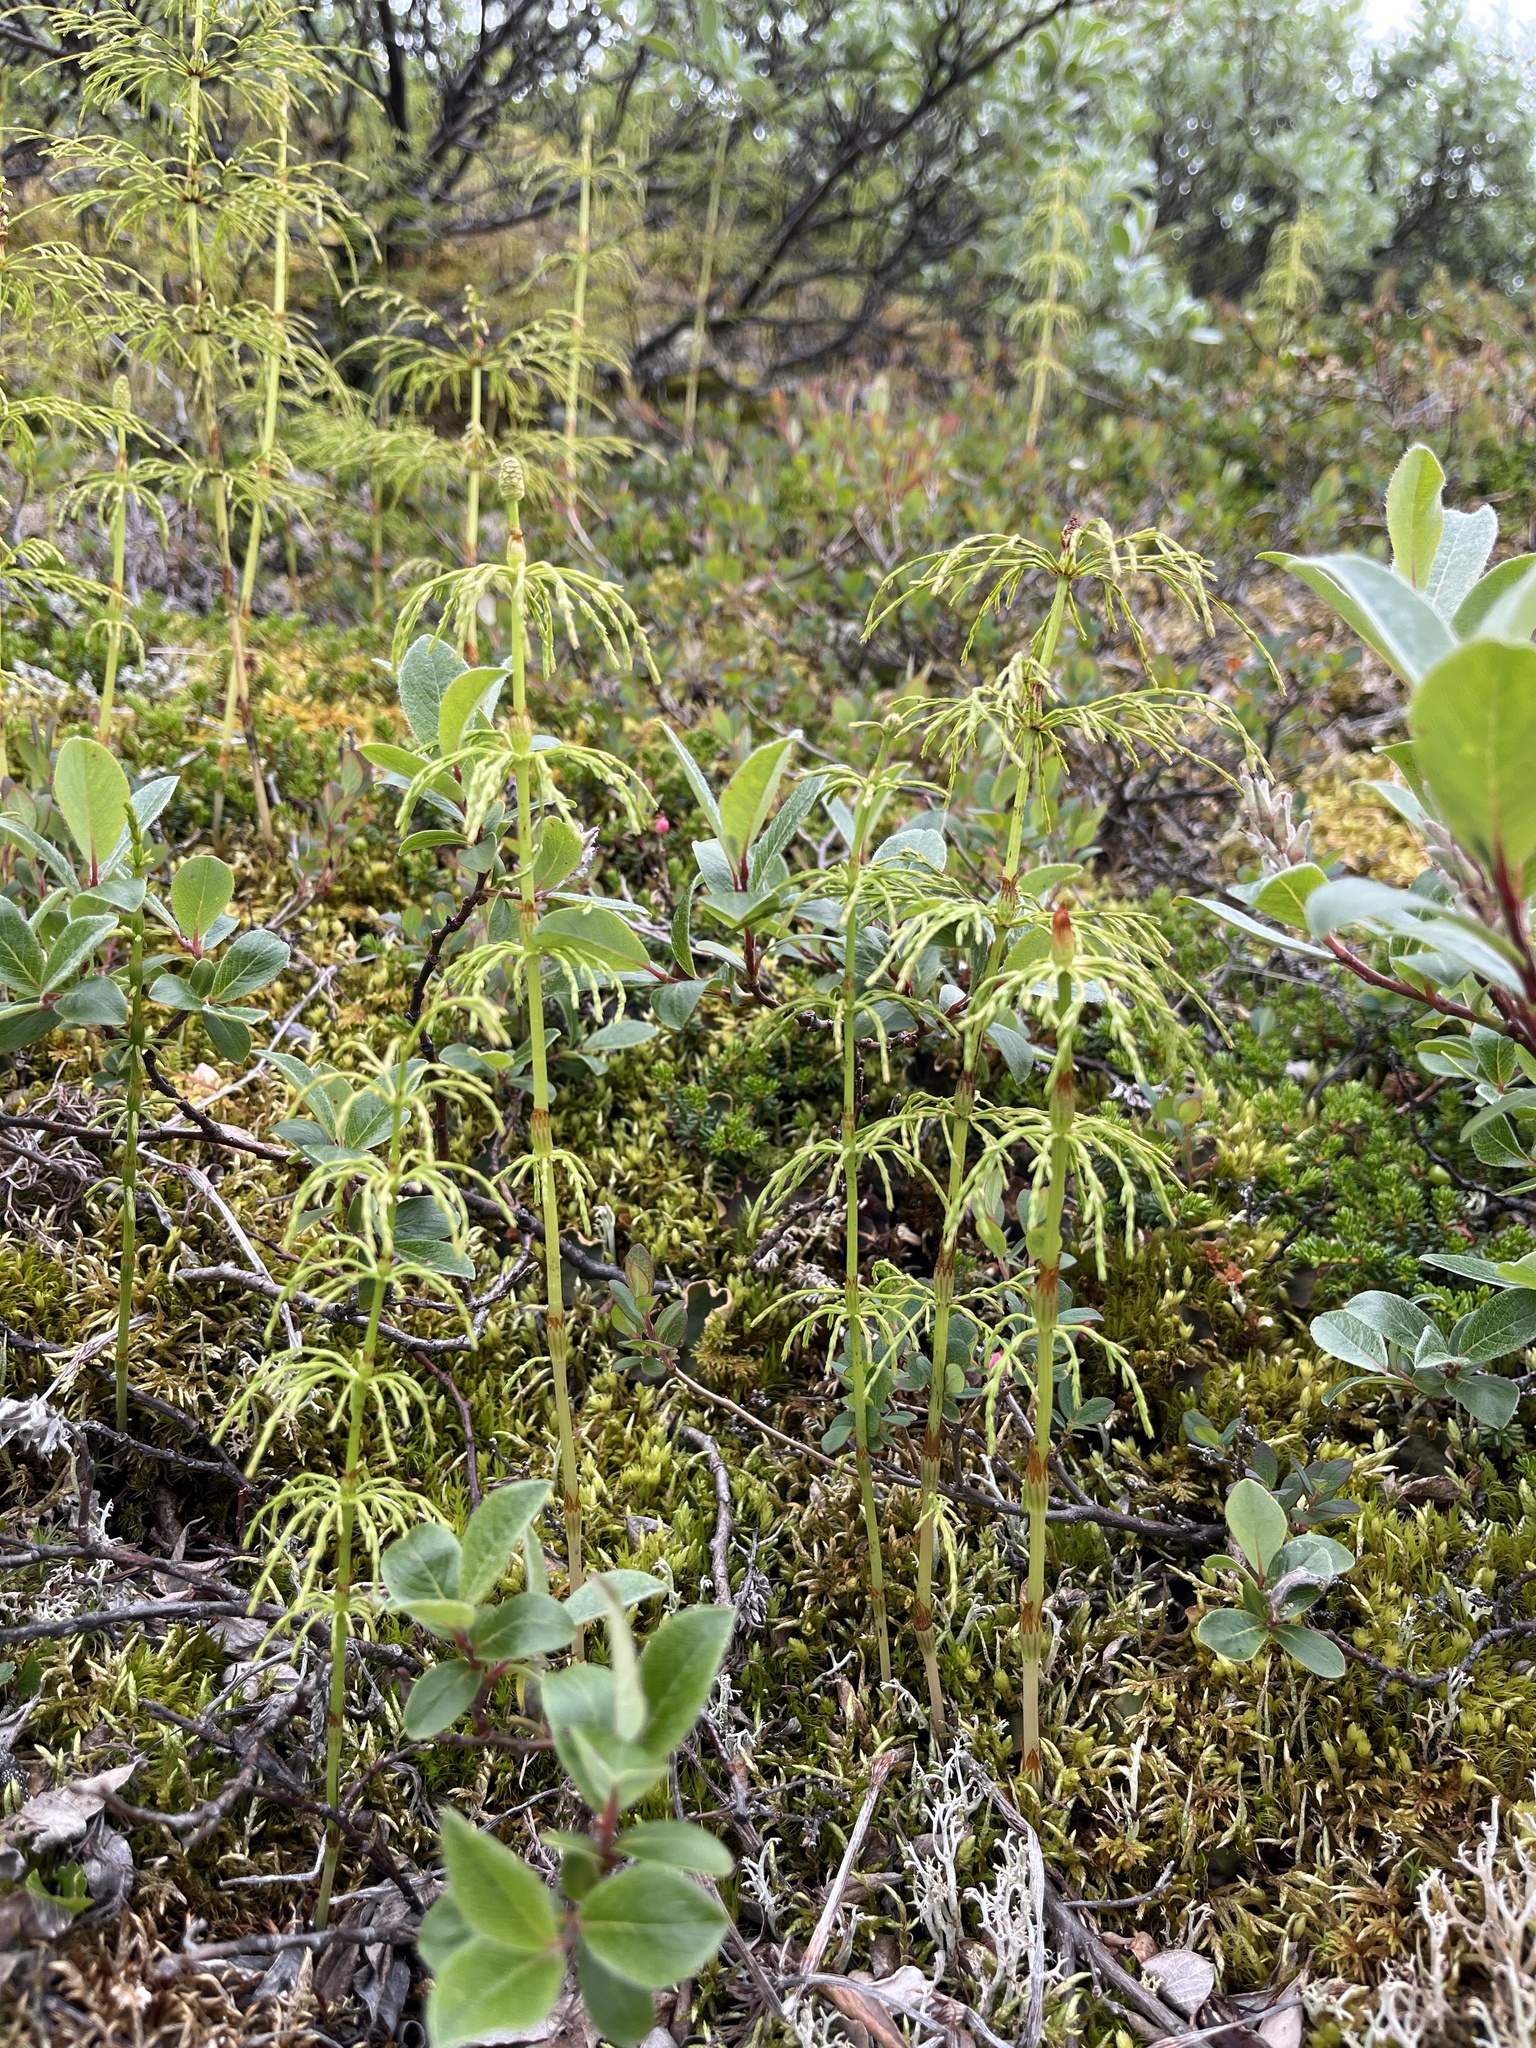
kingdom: Plantae
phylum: Tracheophyta
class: Polypodiopsida
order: Equisetales
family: Equisetaceae
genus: Equisetum
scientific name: Equisetum sylvaticum
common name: Wood horsetail
